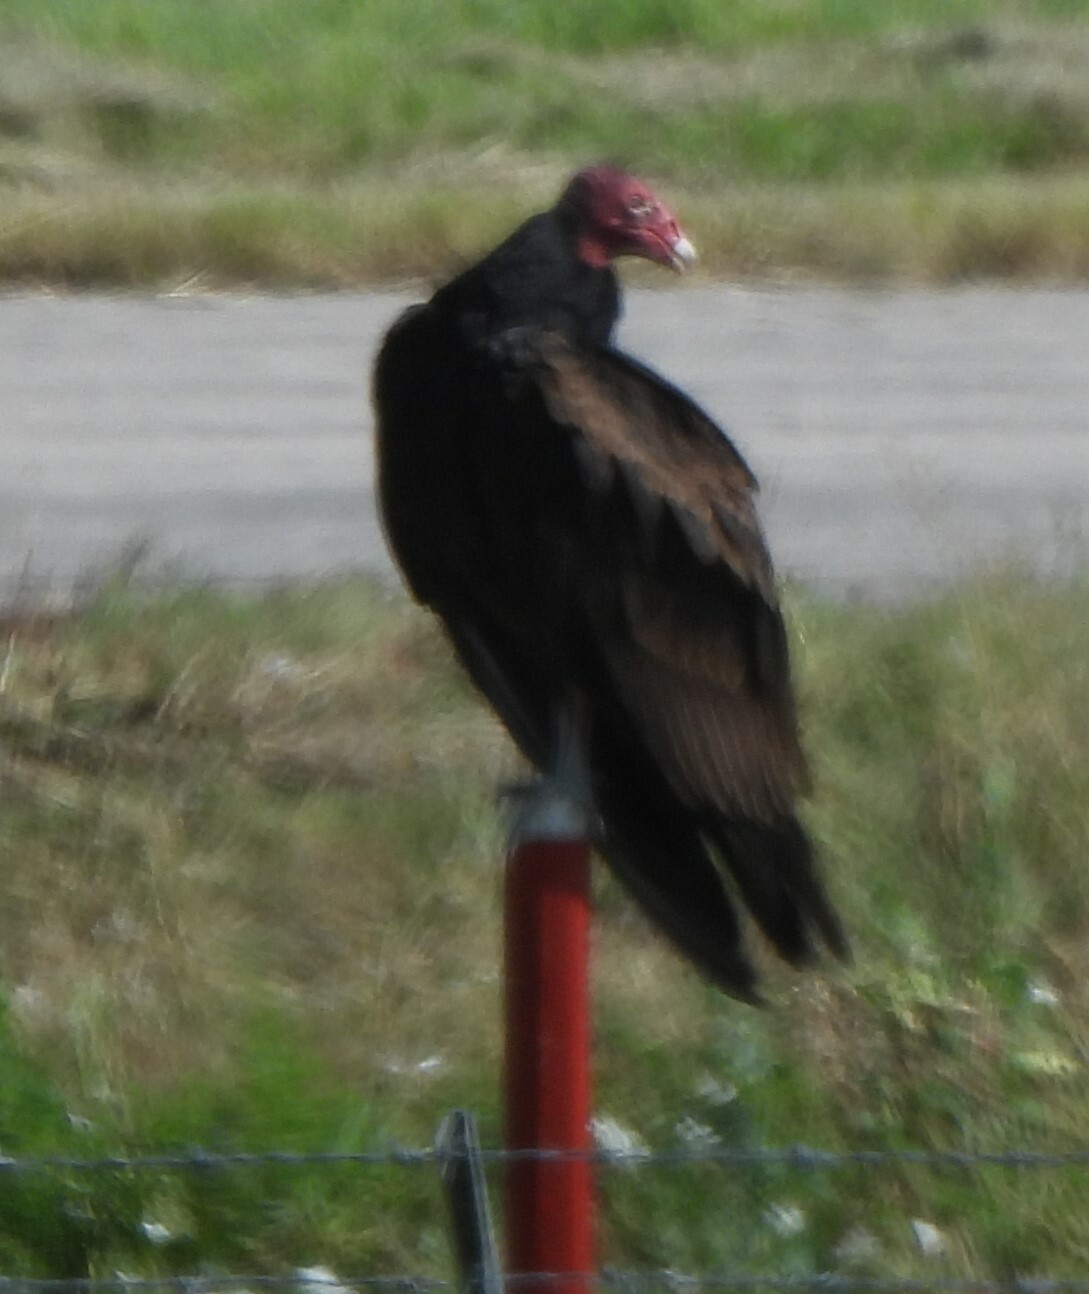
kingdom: Animalia
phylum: Chordata
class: Aves
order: Accipitriformes
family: Cathartidae
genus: Cathartes
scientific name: Cathartes aura
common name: Turkey vulture
